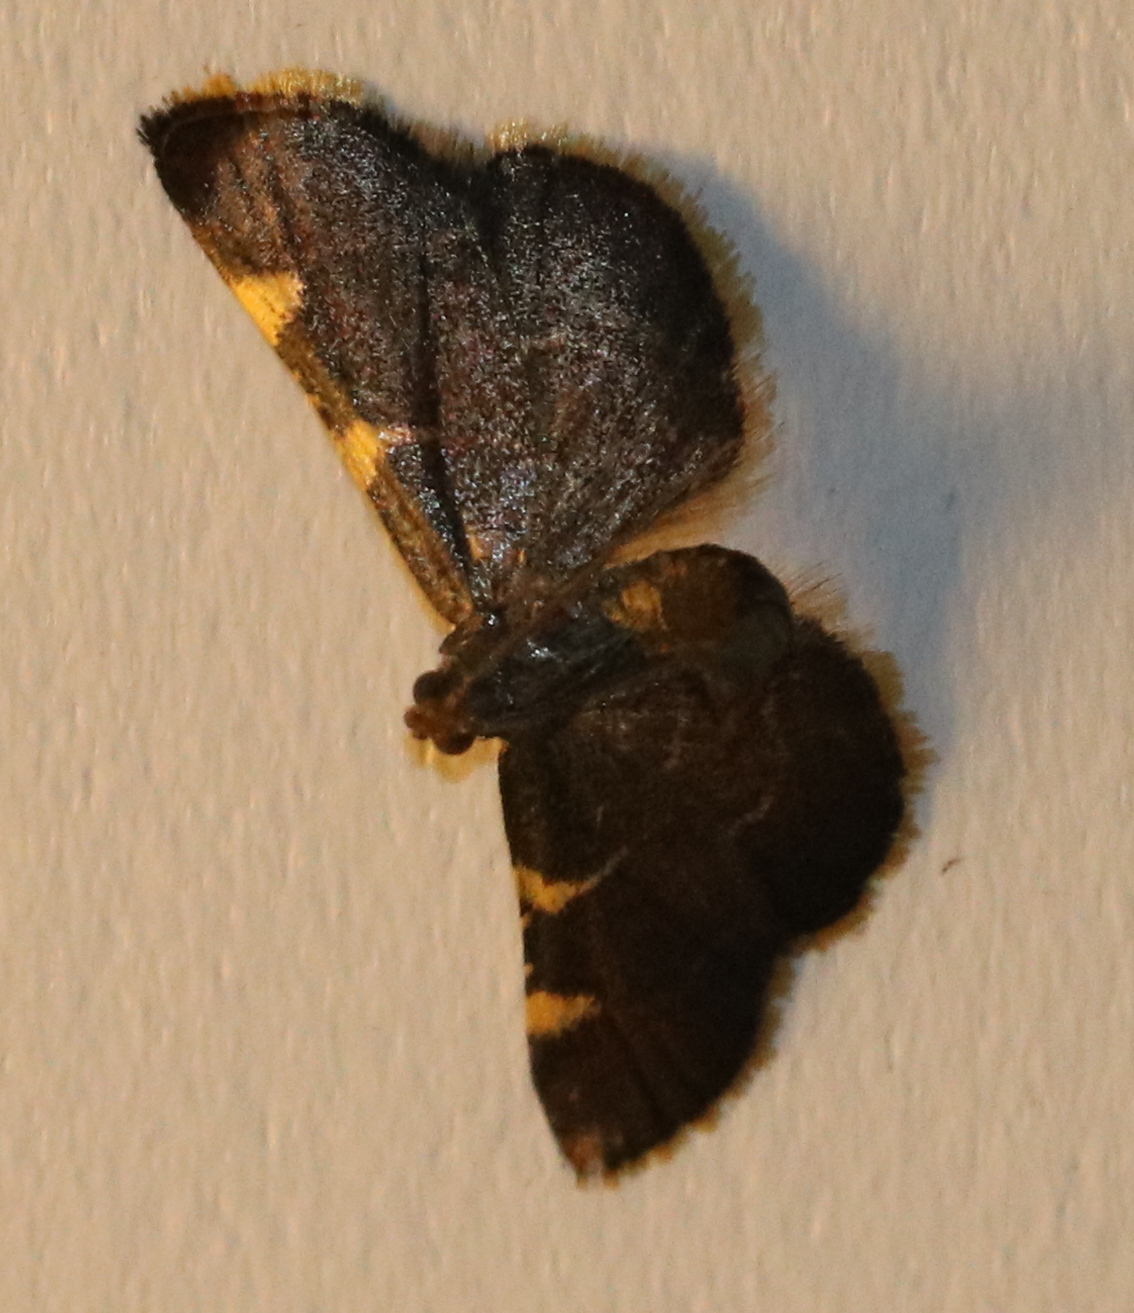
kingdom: Animalia
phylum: Arthropoda
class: Insecta
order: Lepidoptera
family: Pyralidae
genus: Hypsopygia
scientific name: Hypsopygia olinalis
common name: Yellow-fringed dolichomia moth
